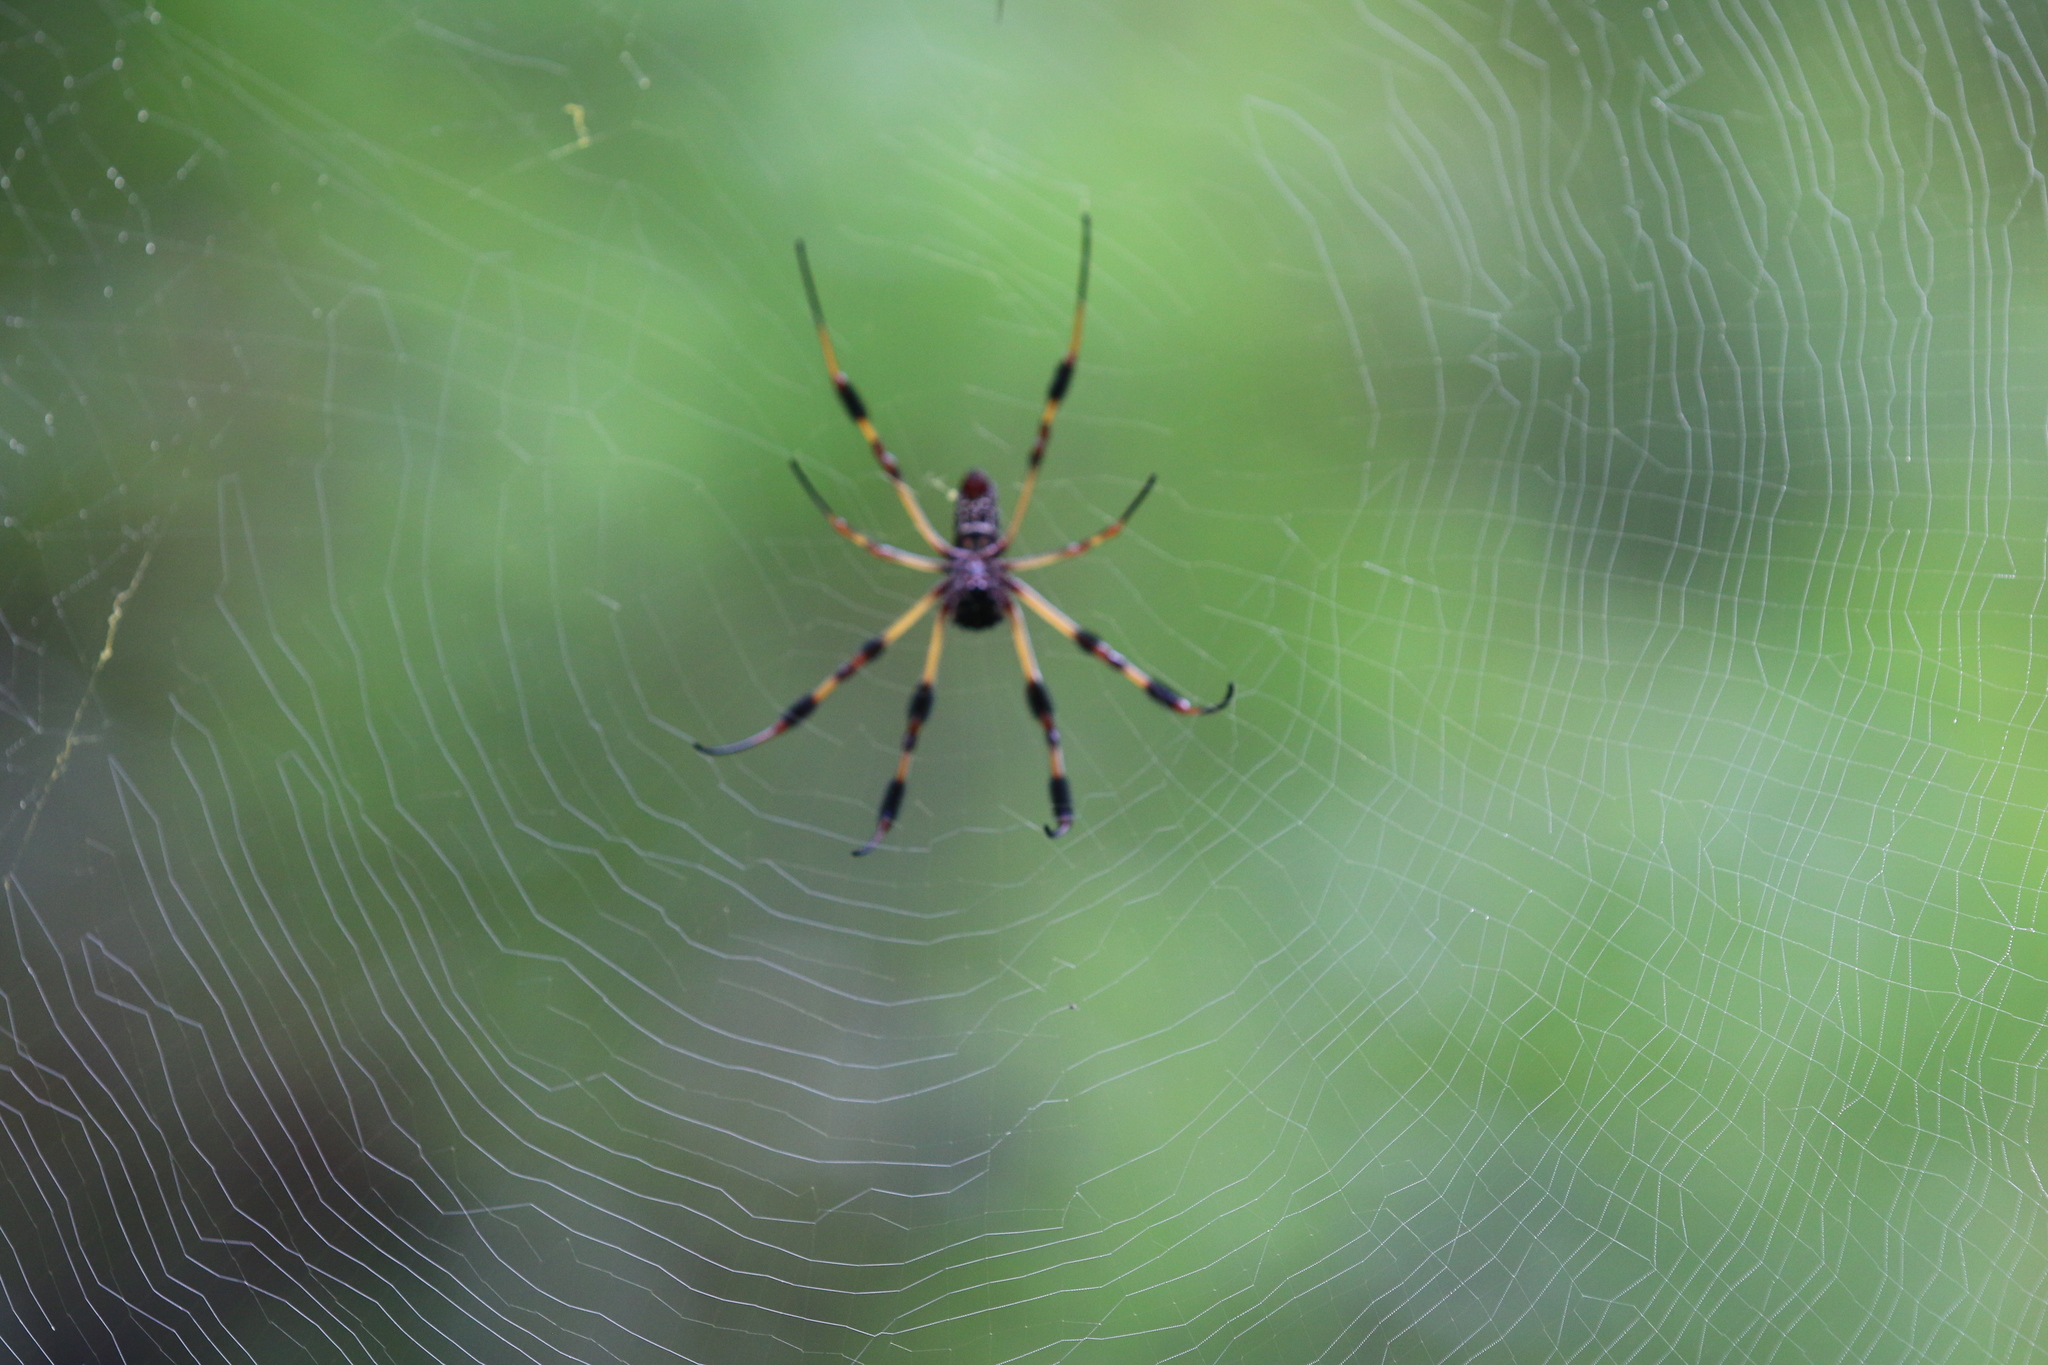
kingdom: Animalia
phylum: Arthropoda
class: Arachnida
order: Araneae
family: Araneidae
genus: Trichonephila
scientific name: Trichonephila clavipes
